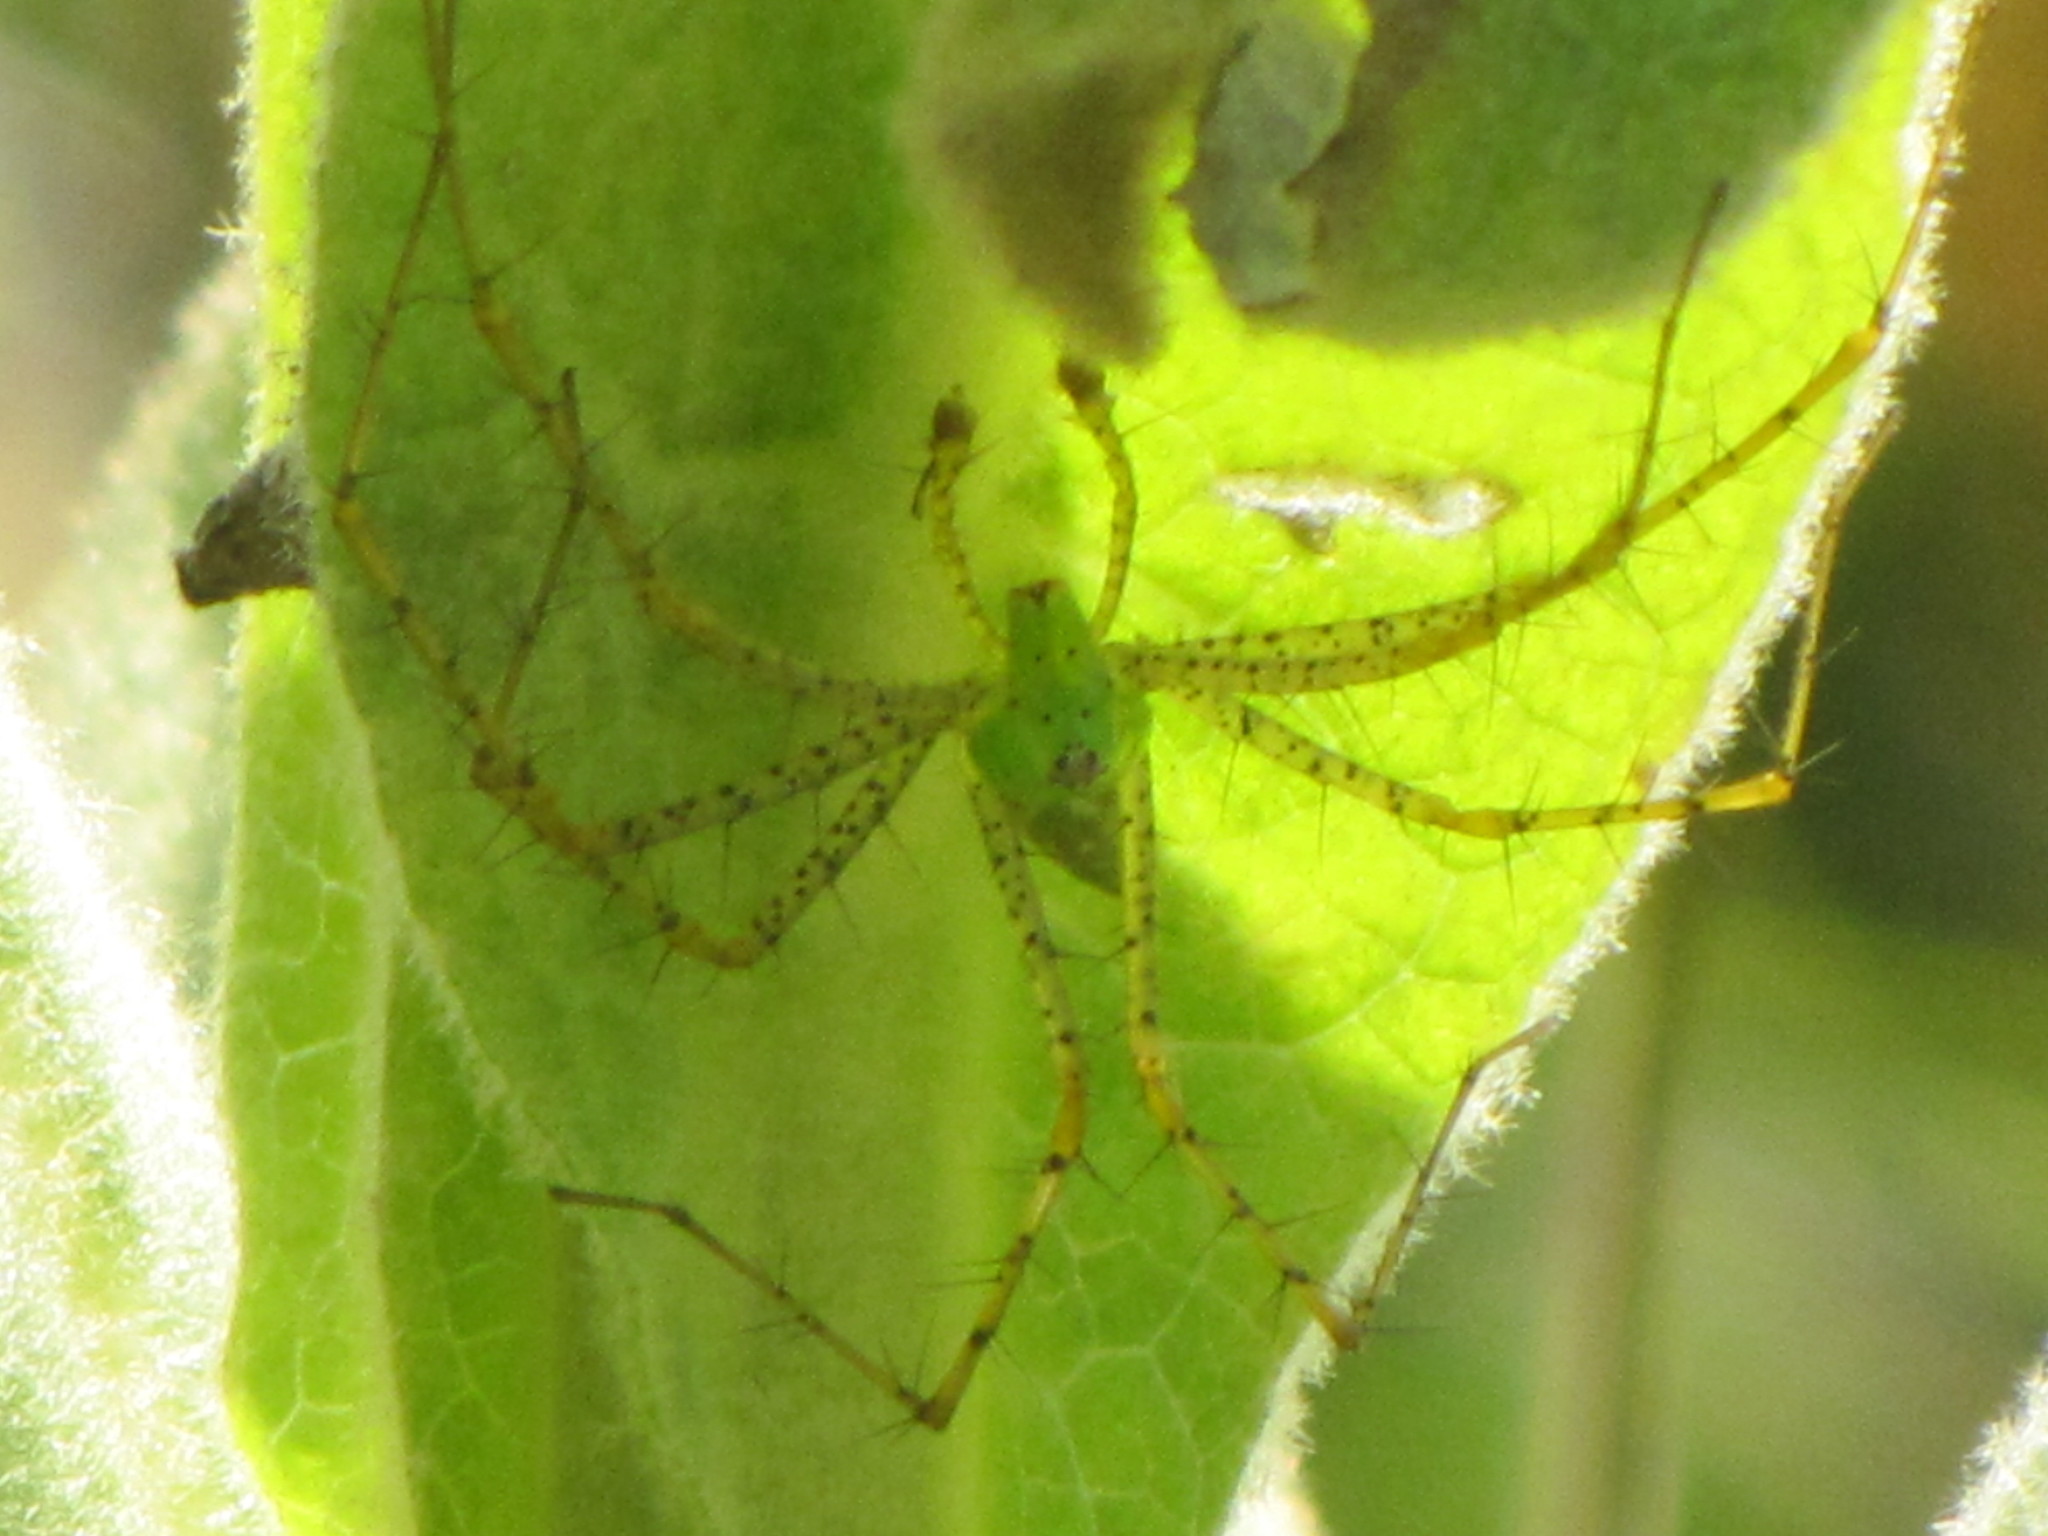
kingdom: Animalia
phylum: Arthropoda
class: Arachnida
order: Araneae
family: Oxyopidae
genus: Peucetia
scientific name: Peucetia viridans
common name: Lynx spiders
